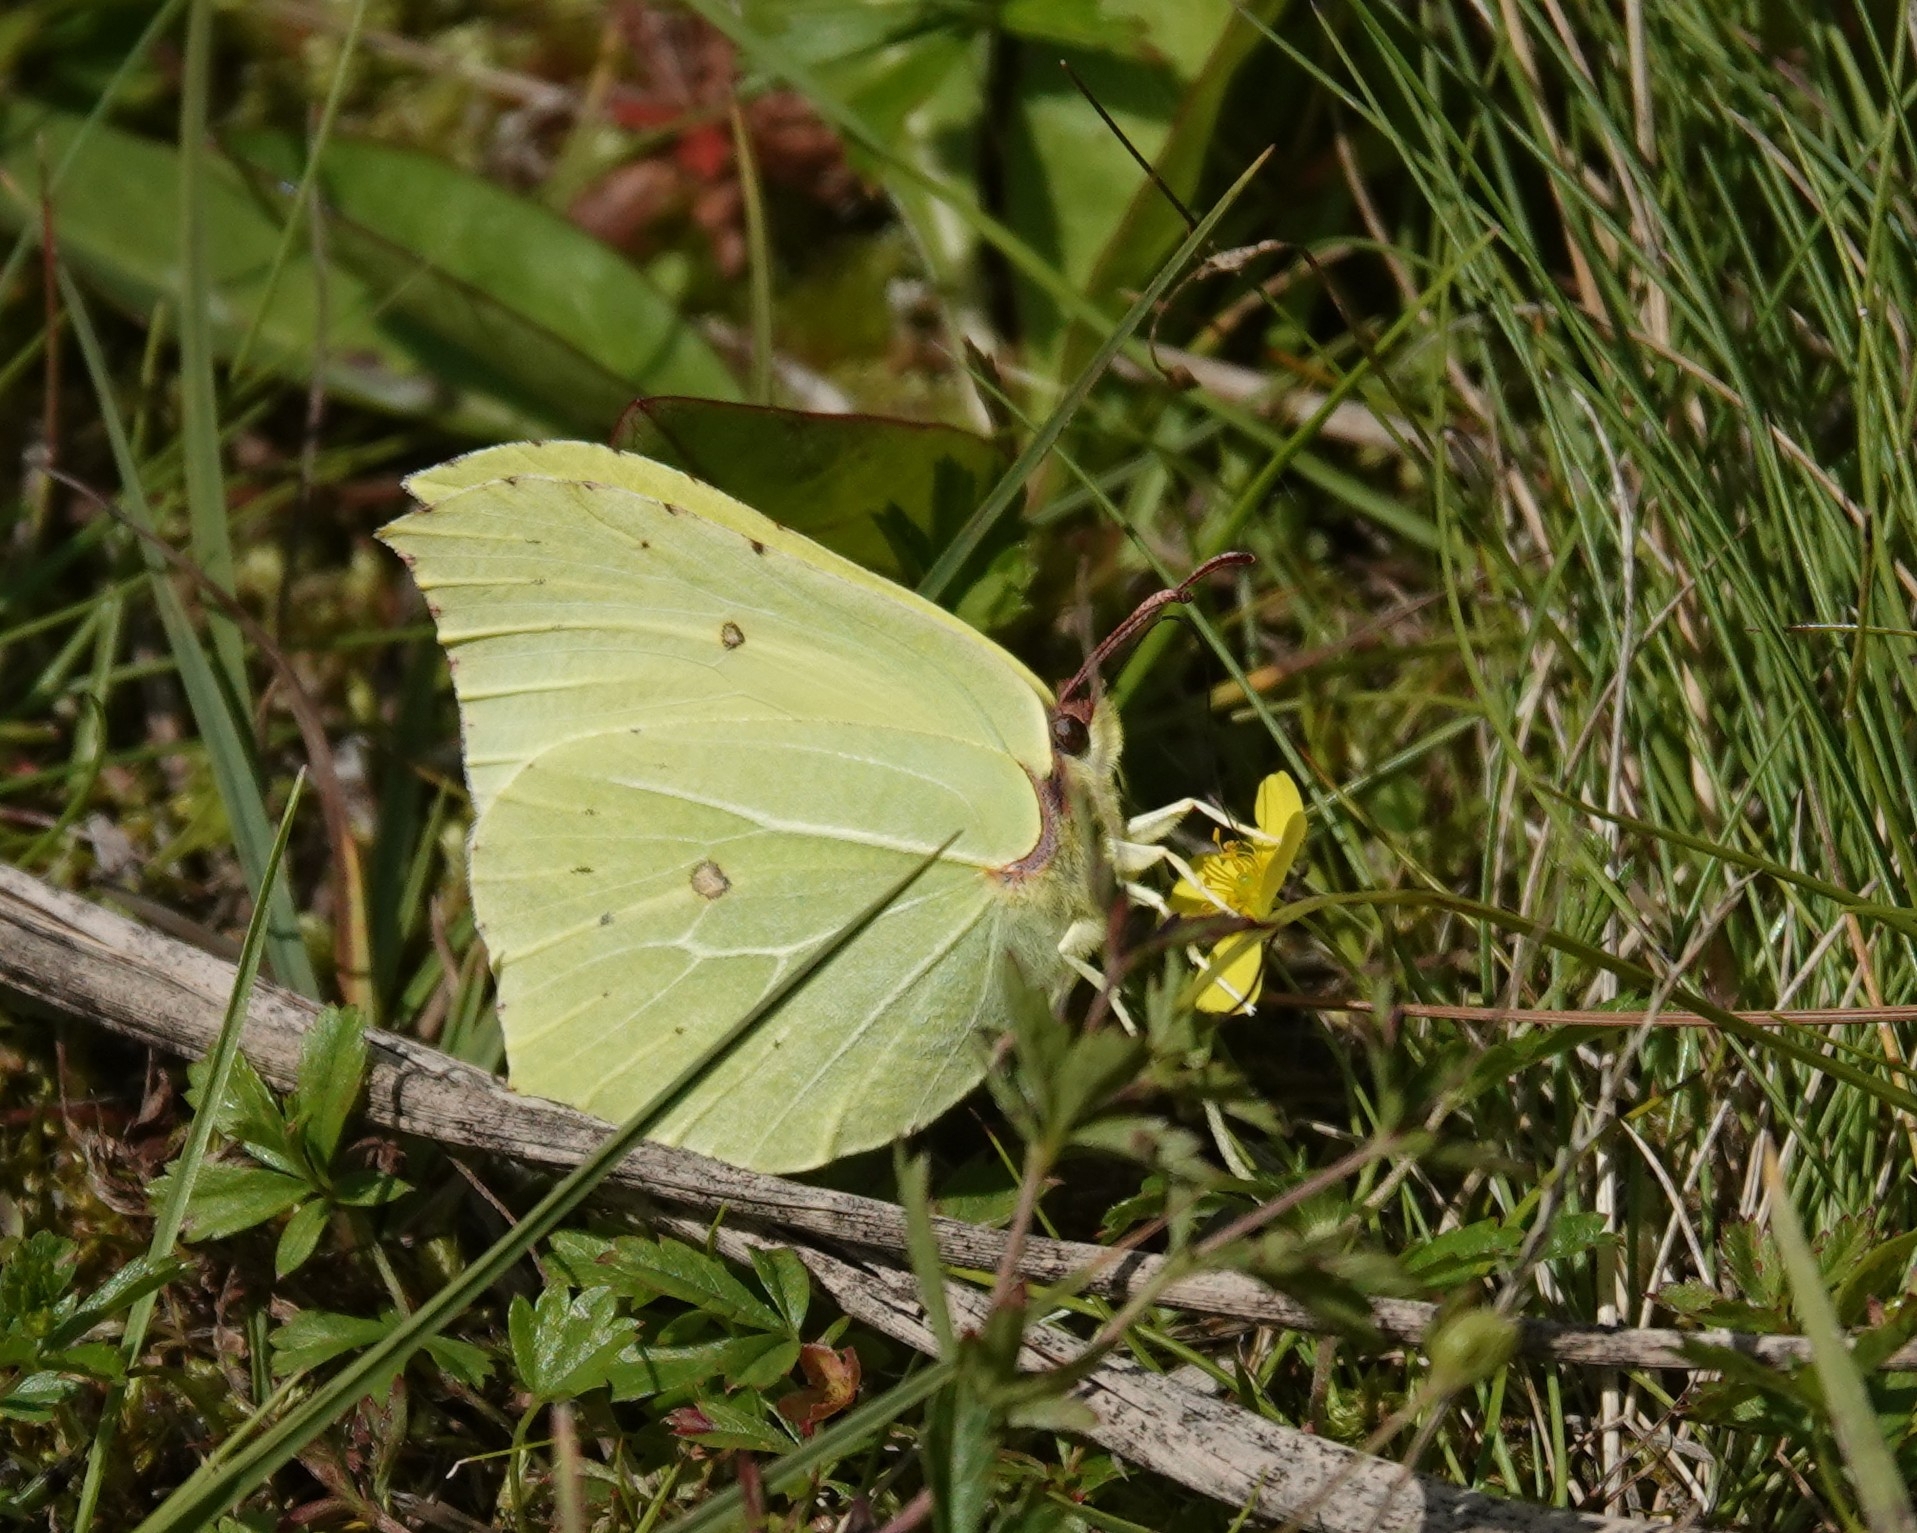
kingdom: Animalia
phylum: Arthropoda
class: Insecta
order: Lepidoptera
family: Pieridae
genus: Gonepteryx
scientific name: Gonepteryx rhamni
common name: Brimstone
